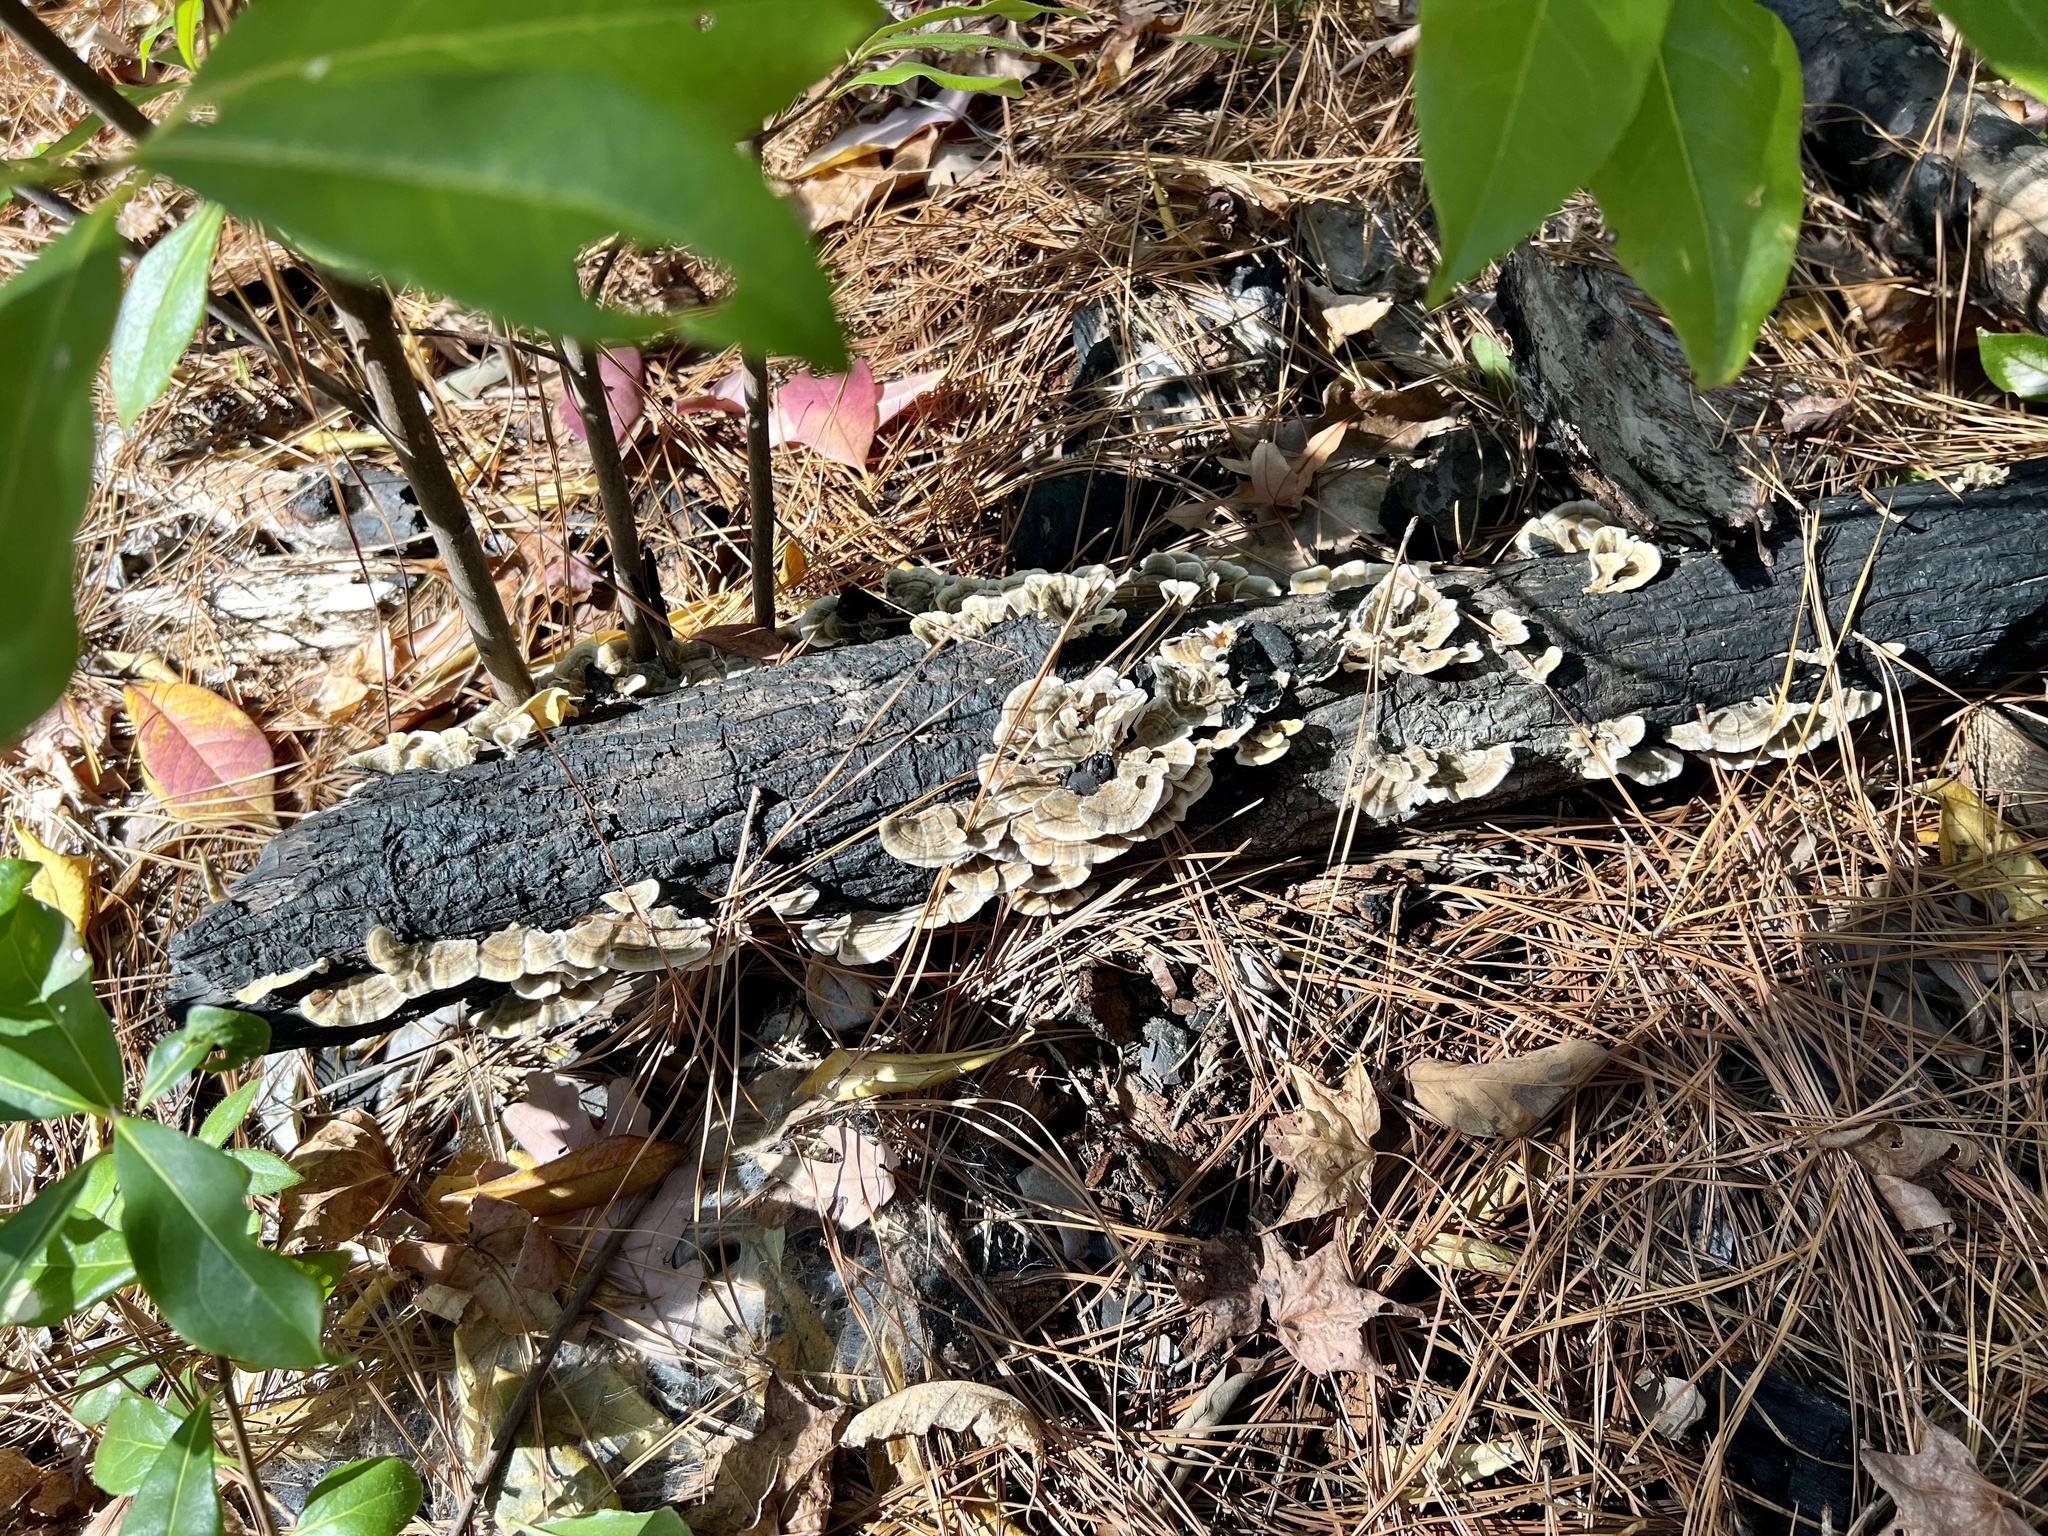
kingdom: Fungi
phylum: Basidiomycota
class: Agaricomycetes
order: Polyporales
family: Polyporaceae
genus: Trametes
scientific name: Trametes versicolor
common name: Turkeytail
